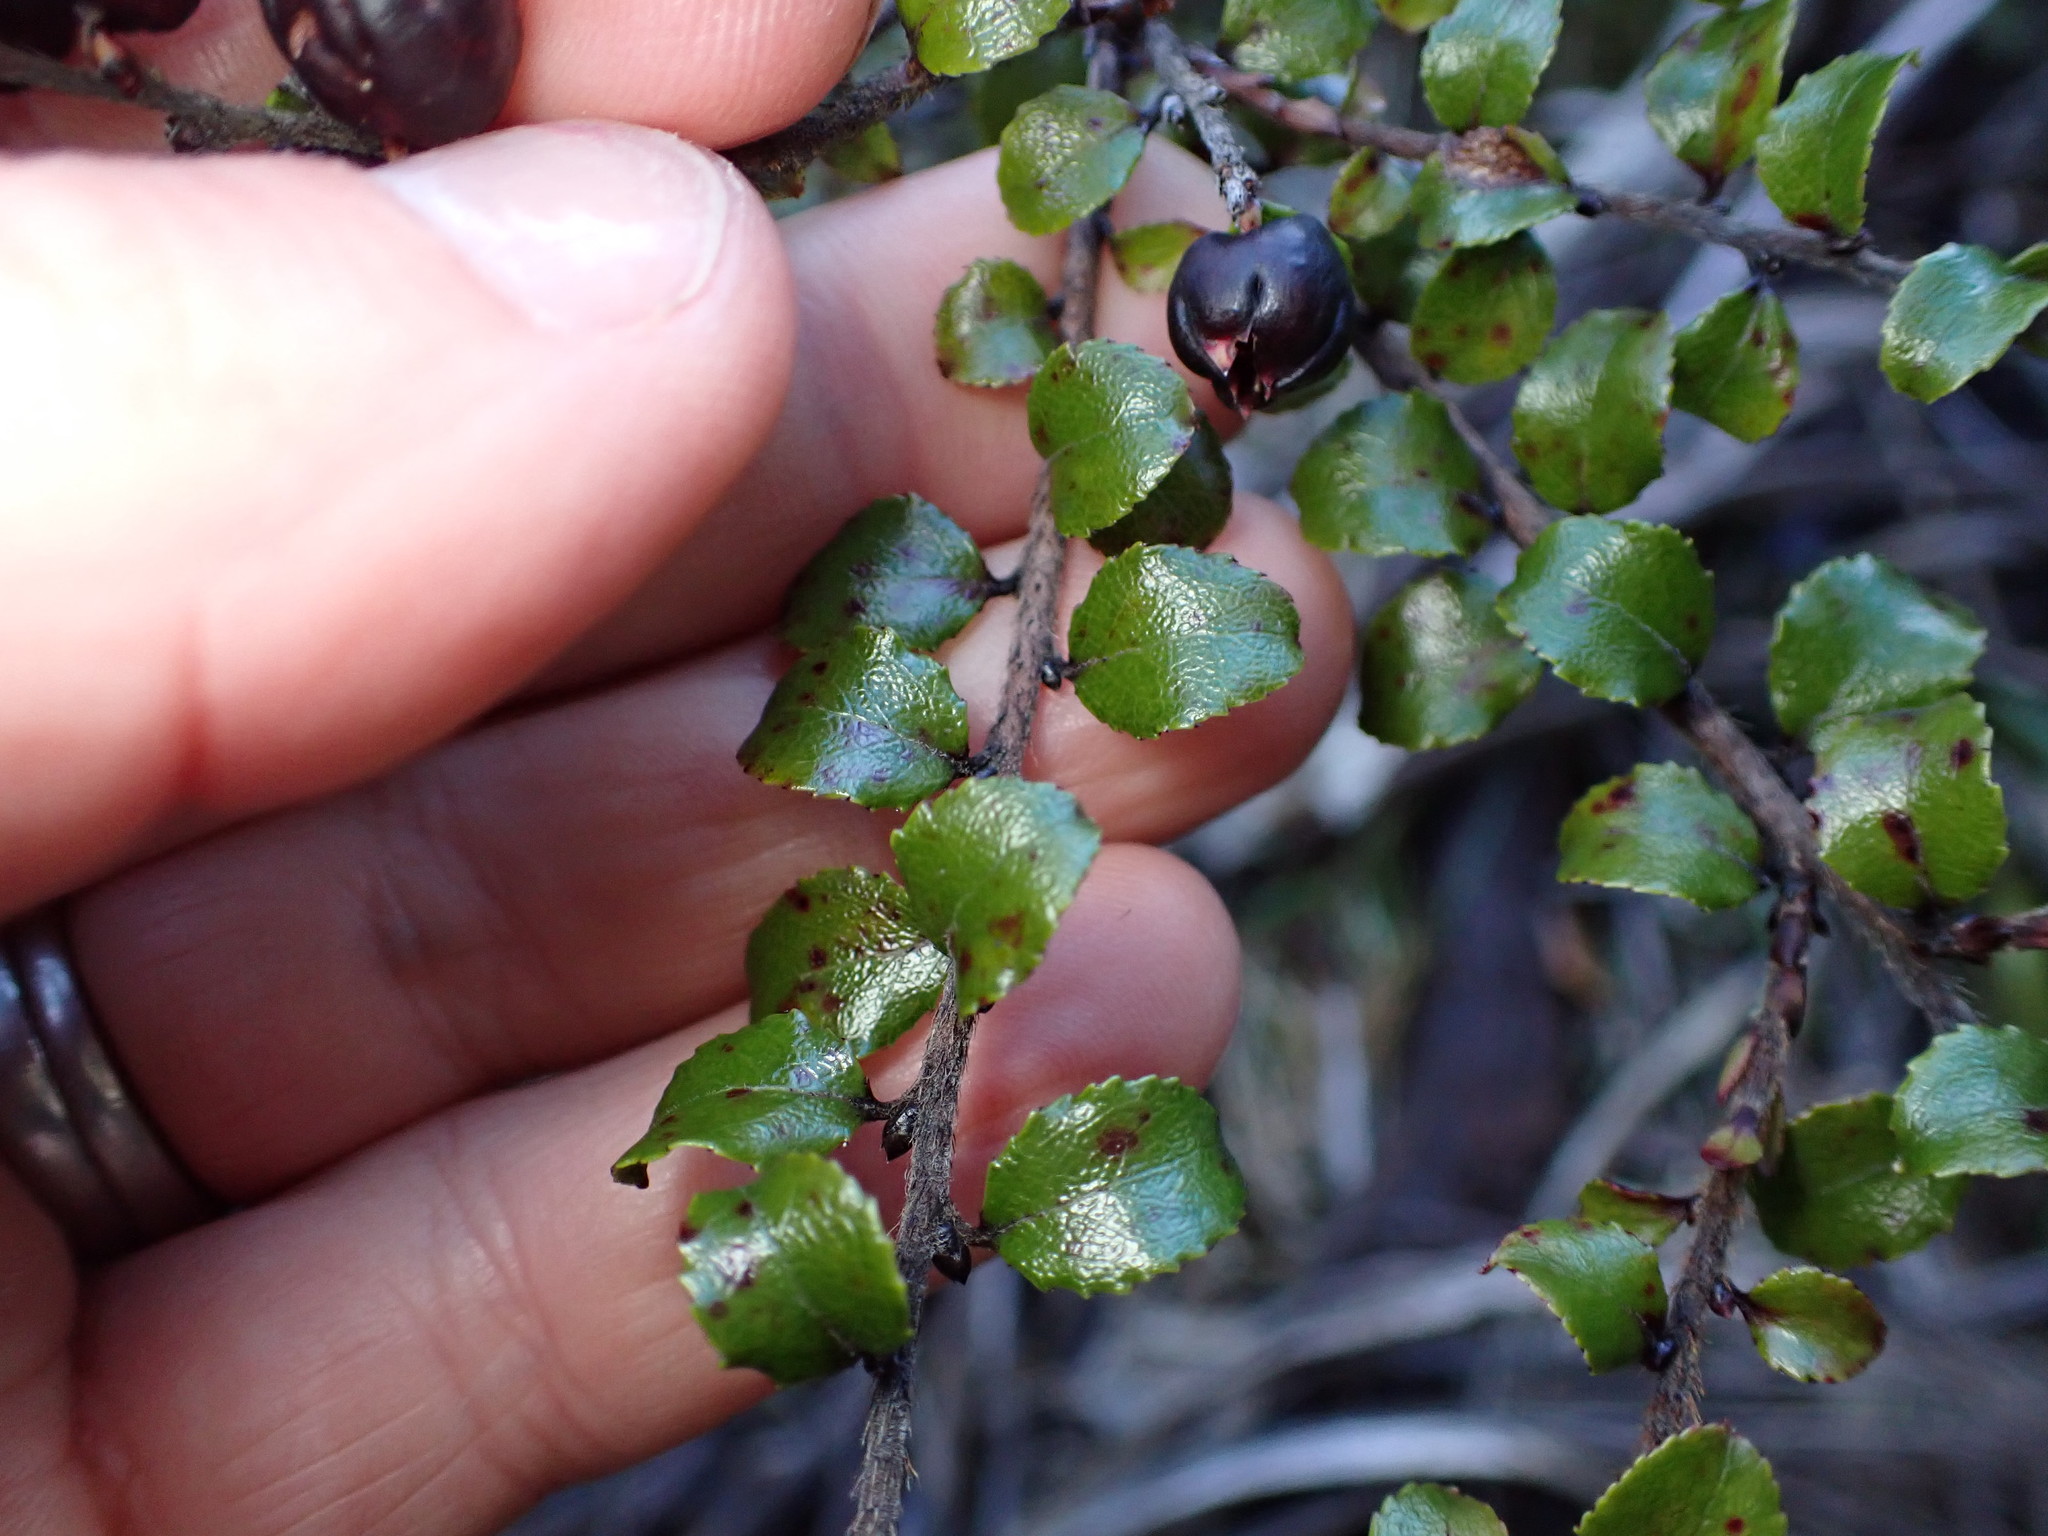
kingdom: Plantae
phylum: Tracheophyta
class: Magnoliopsida
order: Ericales
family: Ericaceae
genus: Gaultheria
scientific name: Gaultheria antipoda
